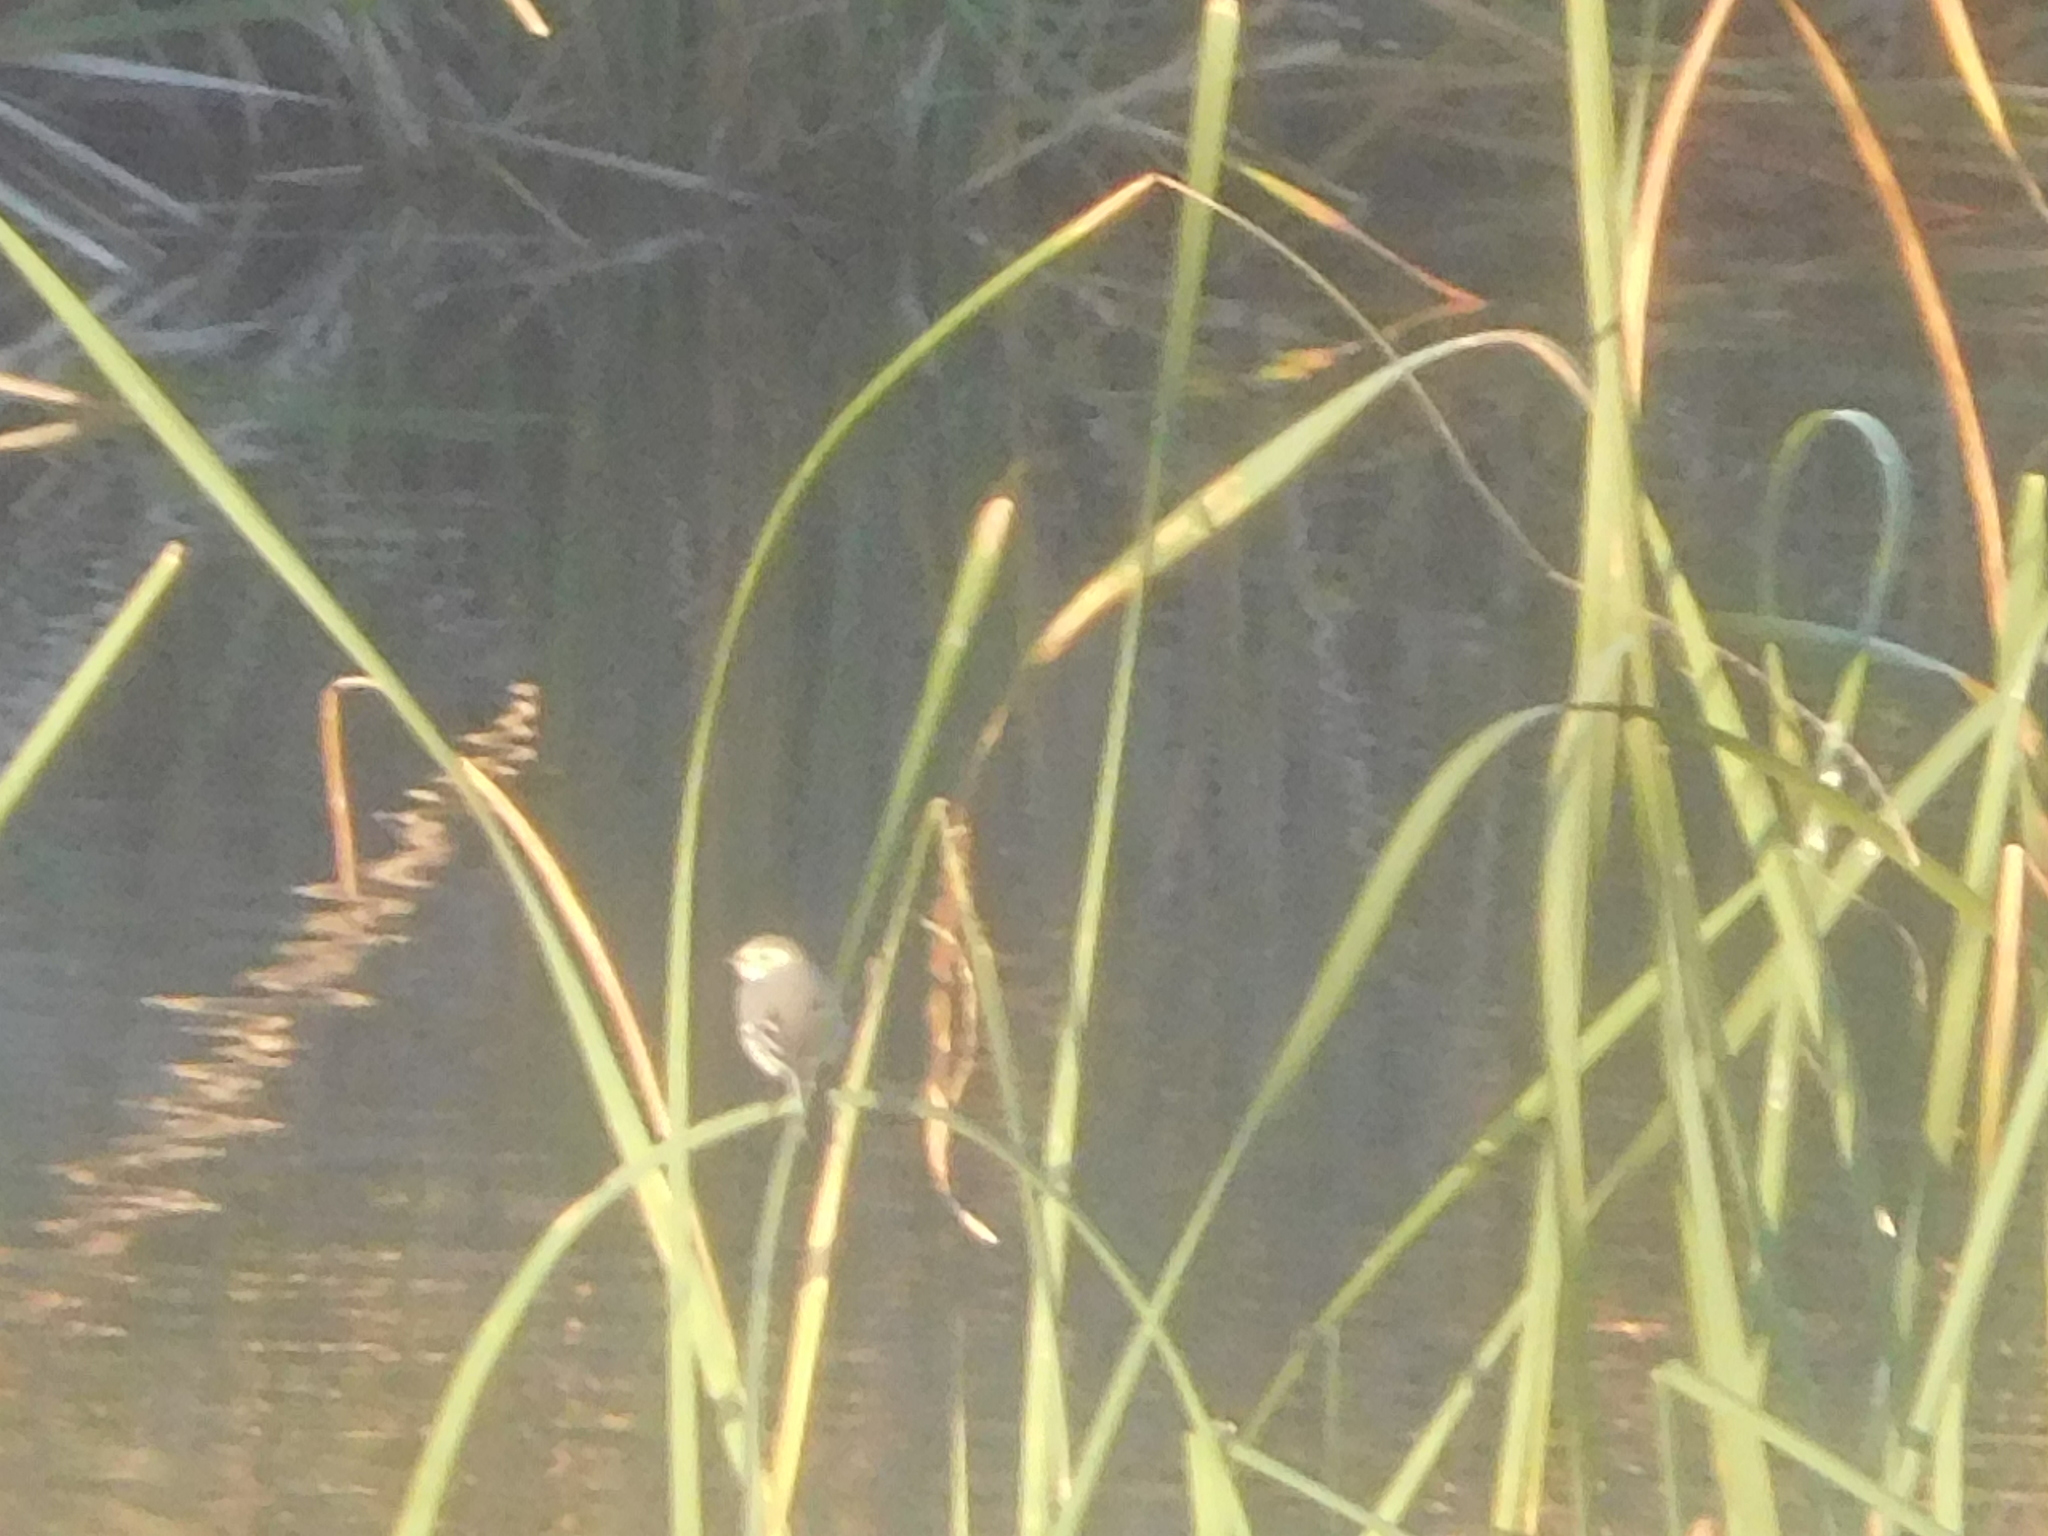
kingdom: Animalia
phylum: Chordata
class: Aves
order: Passeriformes
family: Motacillidae
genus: Motacilla
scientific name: Motacilla alba
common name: White wagtail
